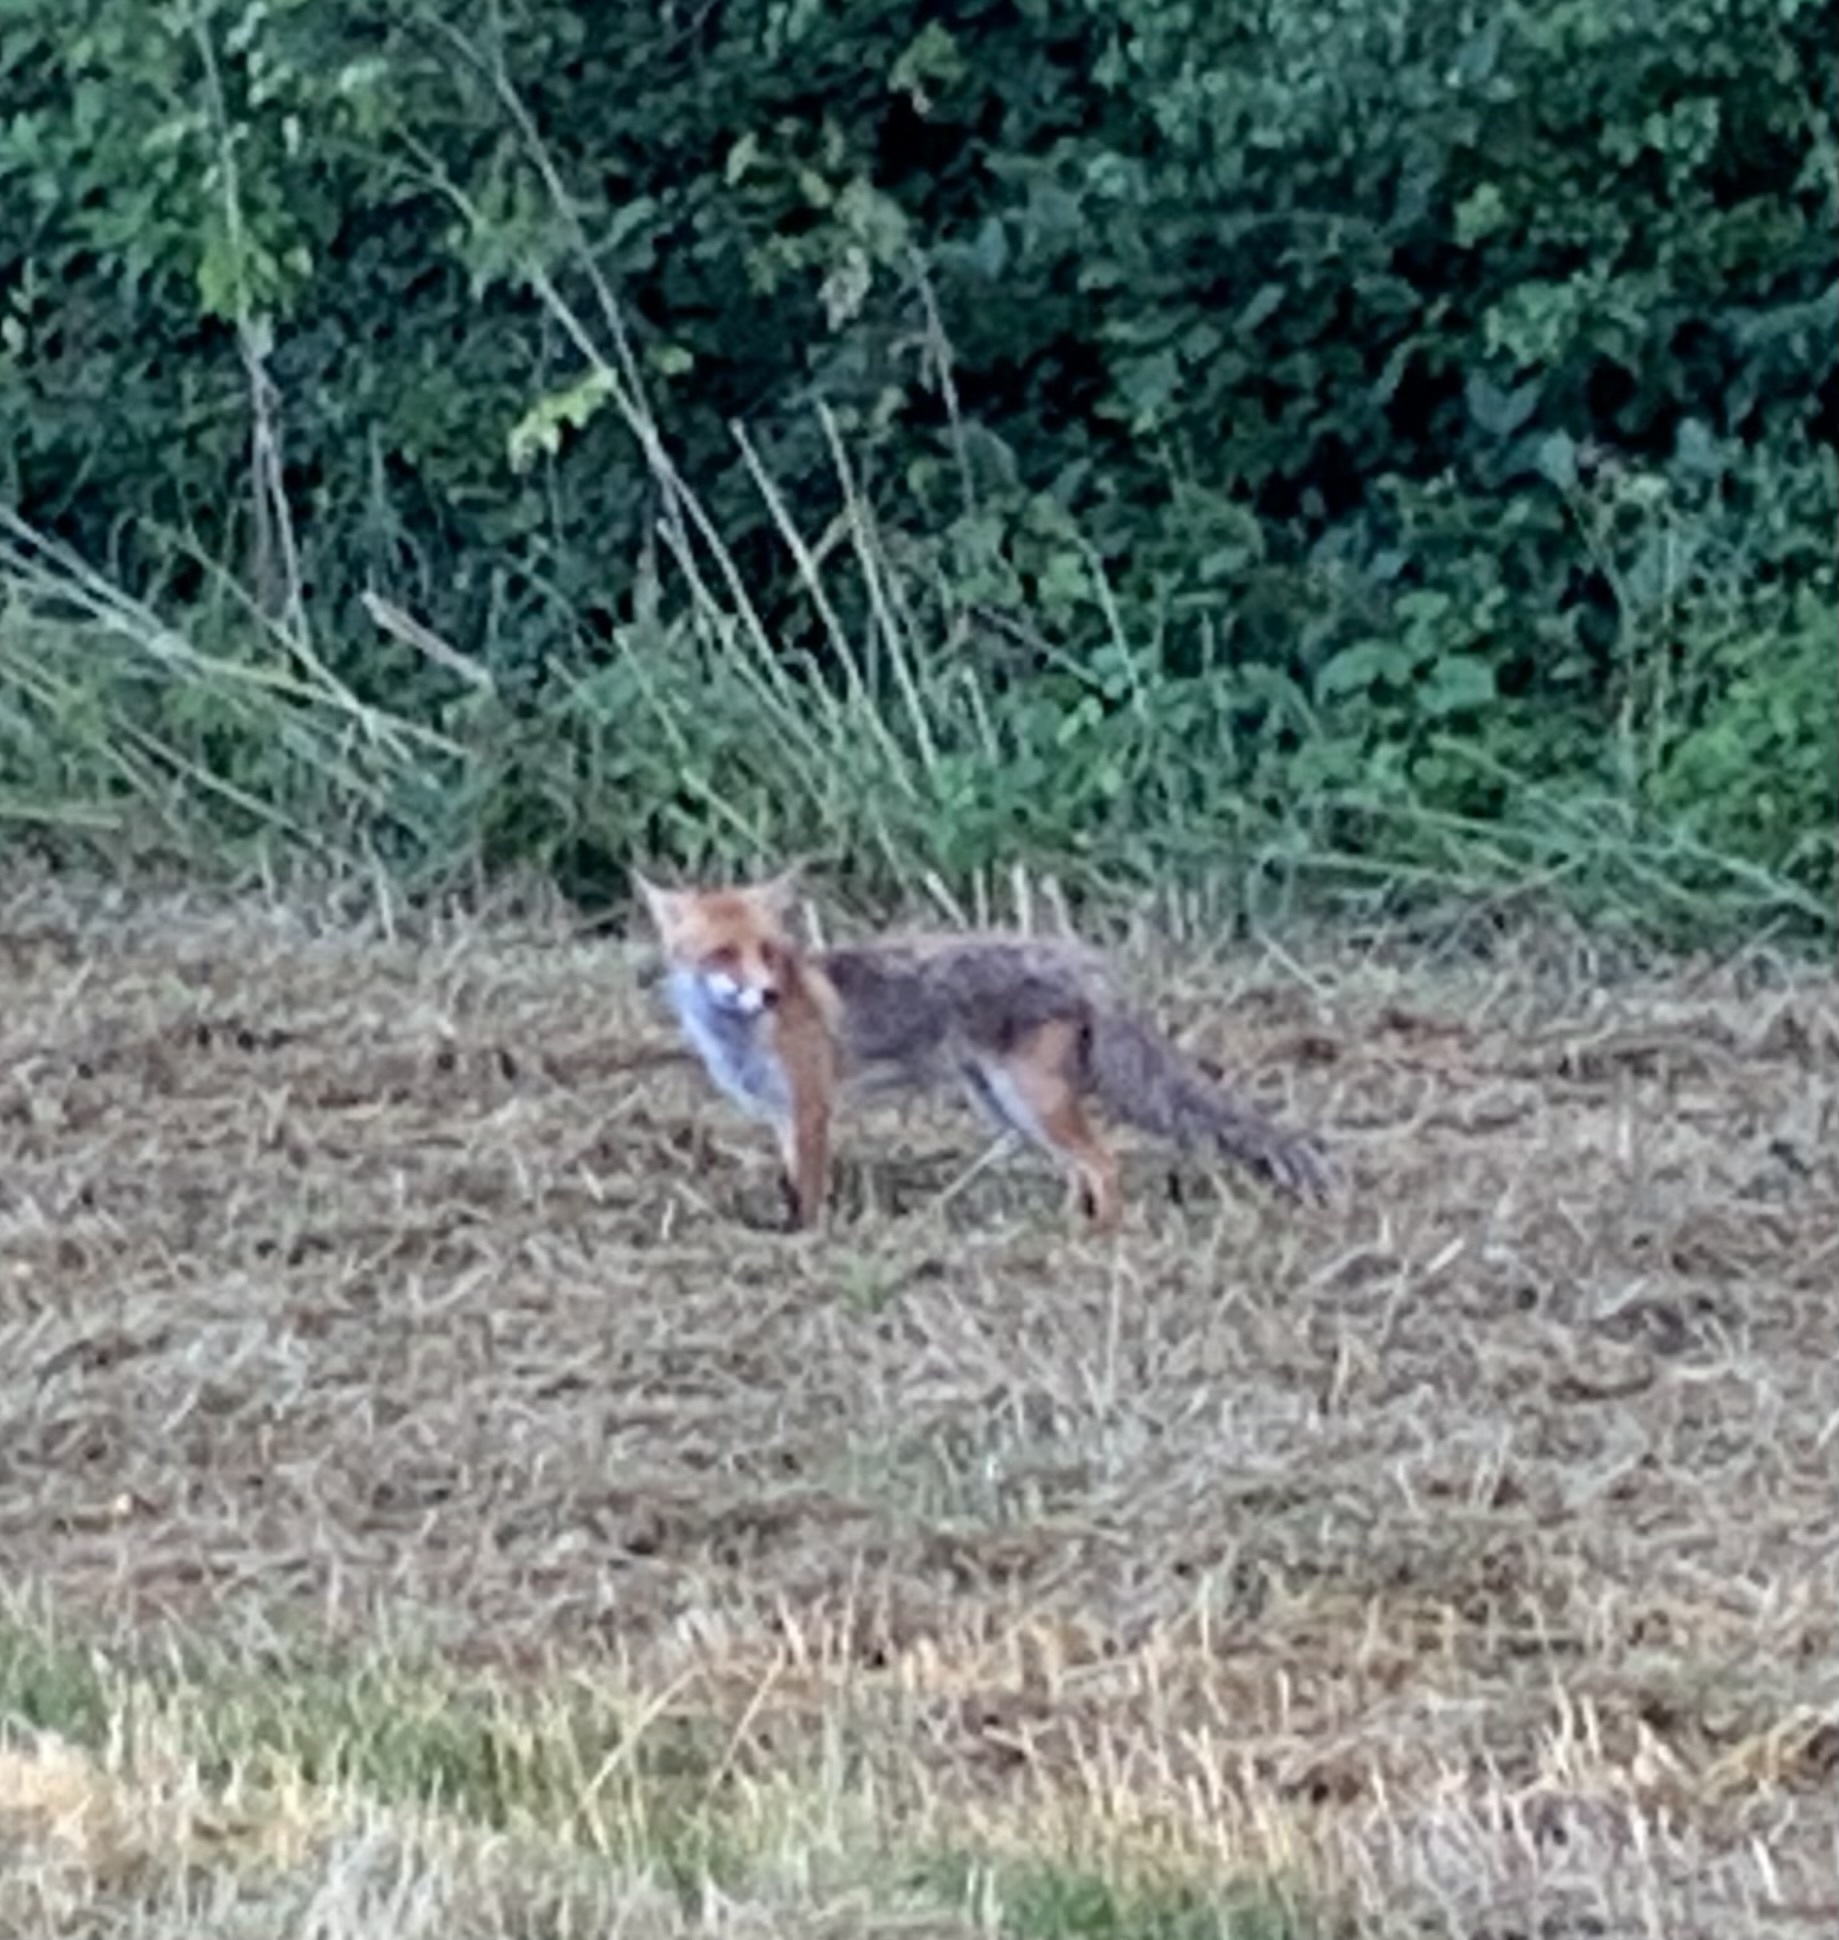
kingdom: Animalia
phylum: Chordata
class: Mammalia
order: Carnivora
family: Canidae
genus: Vulpes
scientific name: Vulpes vulpes
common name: Red fox
